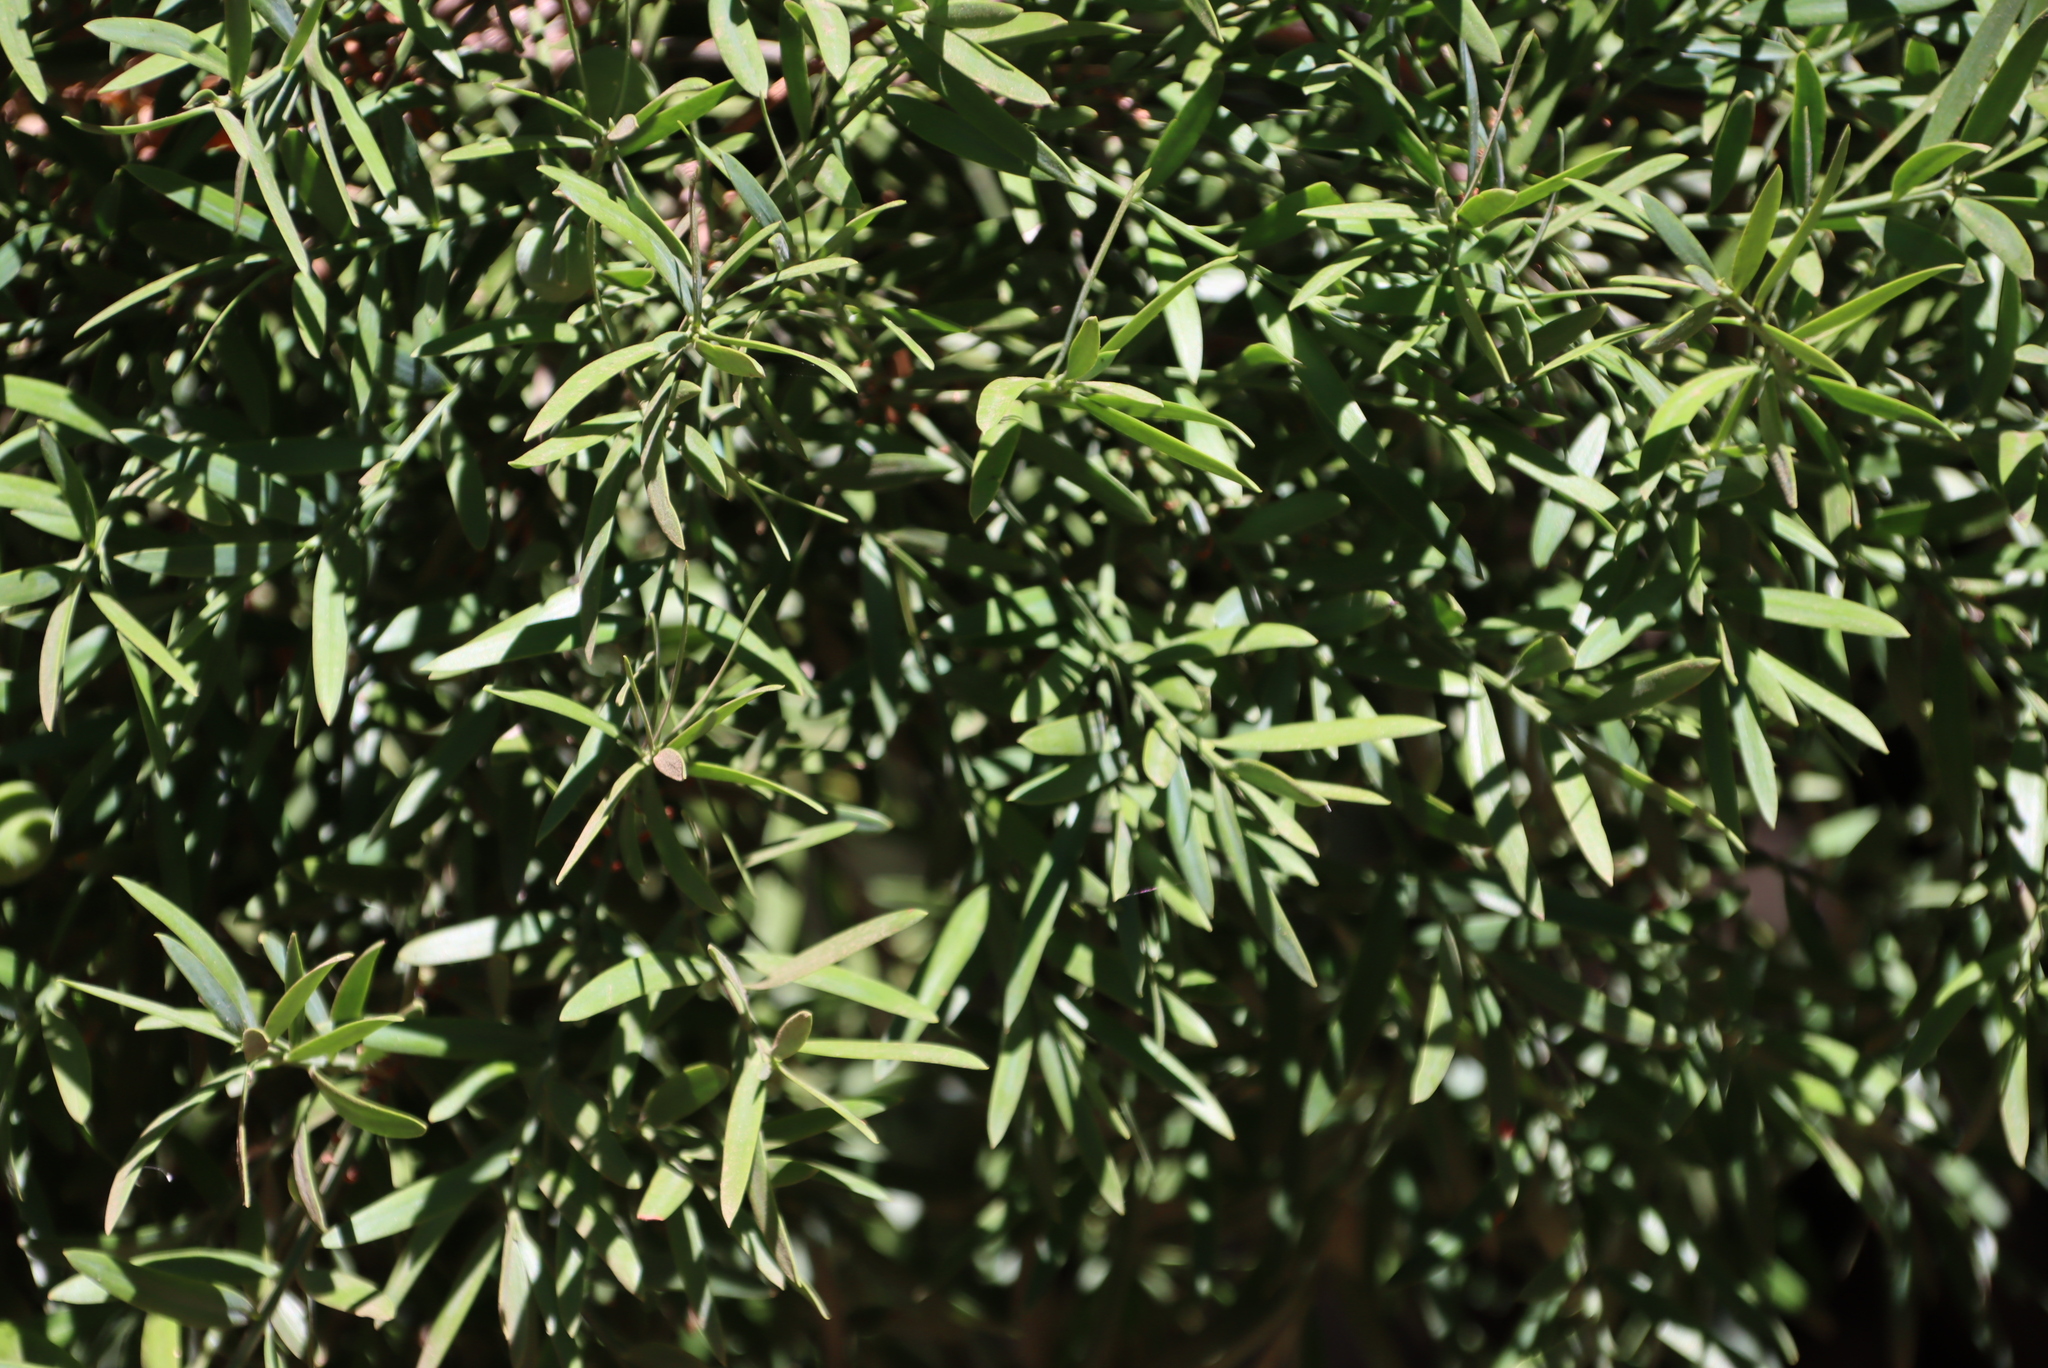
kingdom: Plantae
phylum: Tracheophyta
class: Pinopsida
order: Pinales
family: Podocarpaceae
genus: Afrocarpus
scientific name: Afrocarpus falcatus
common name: Bastard yellowwood
